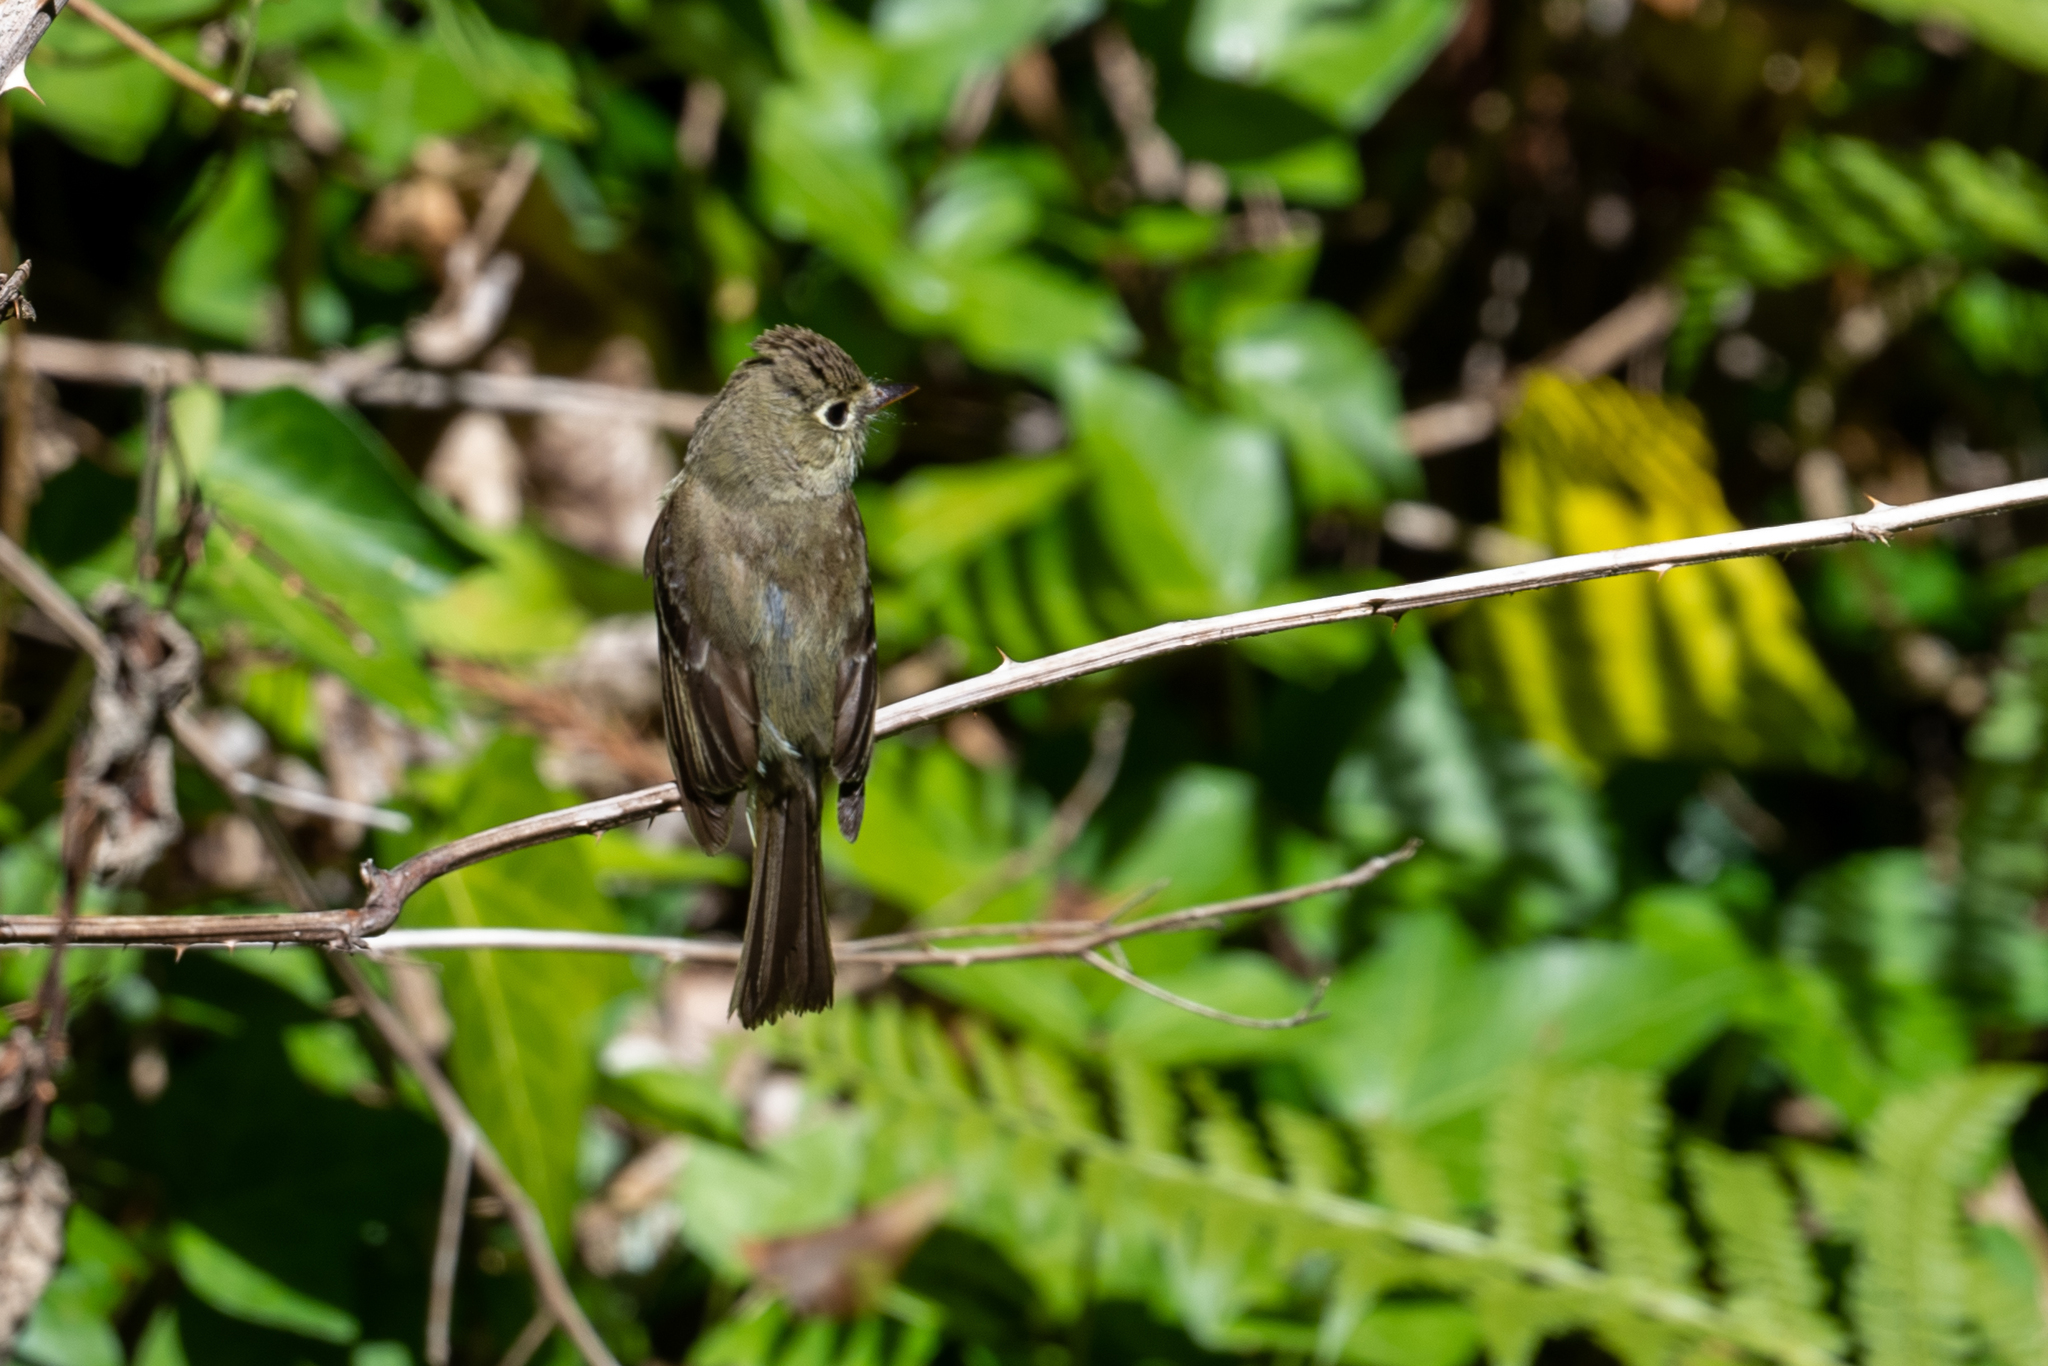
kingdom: Animalia
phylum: Chordata
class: Aves
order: Passeriformes
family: Tyrannidae
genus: Empidonax
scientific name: Empidonax difficilis
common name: Pacific-slope flycatcher
